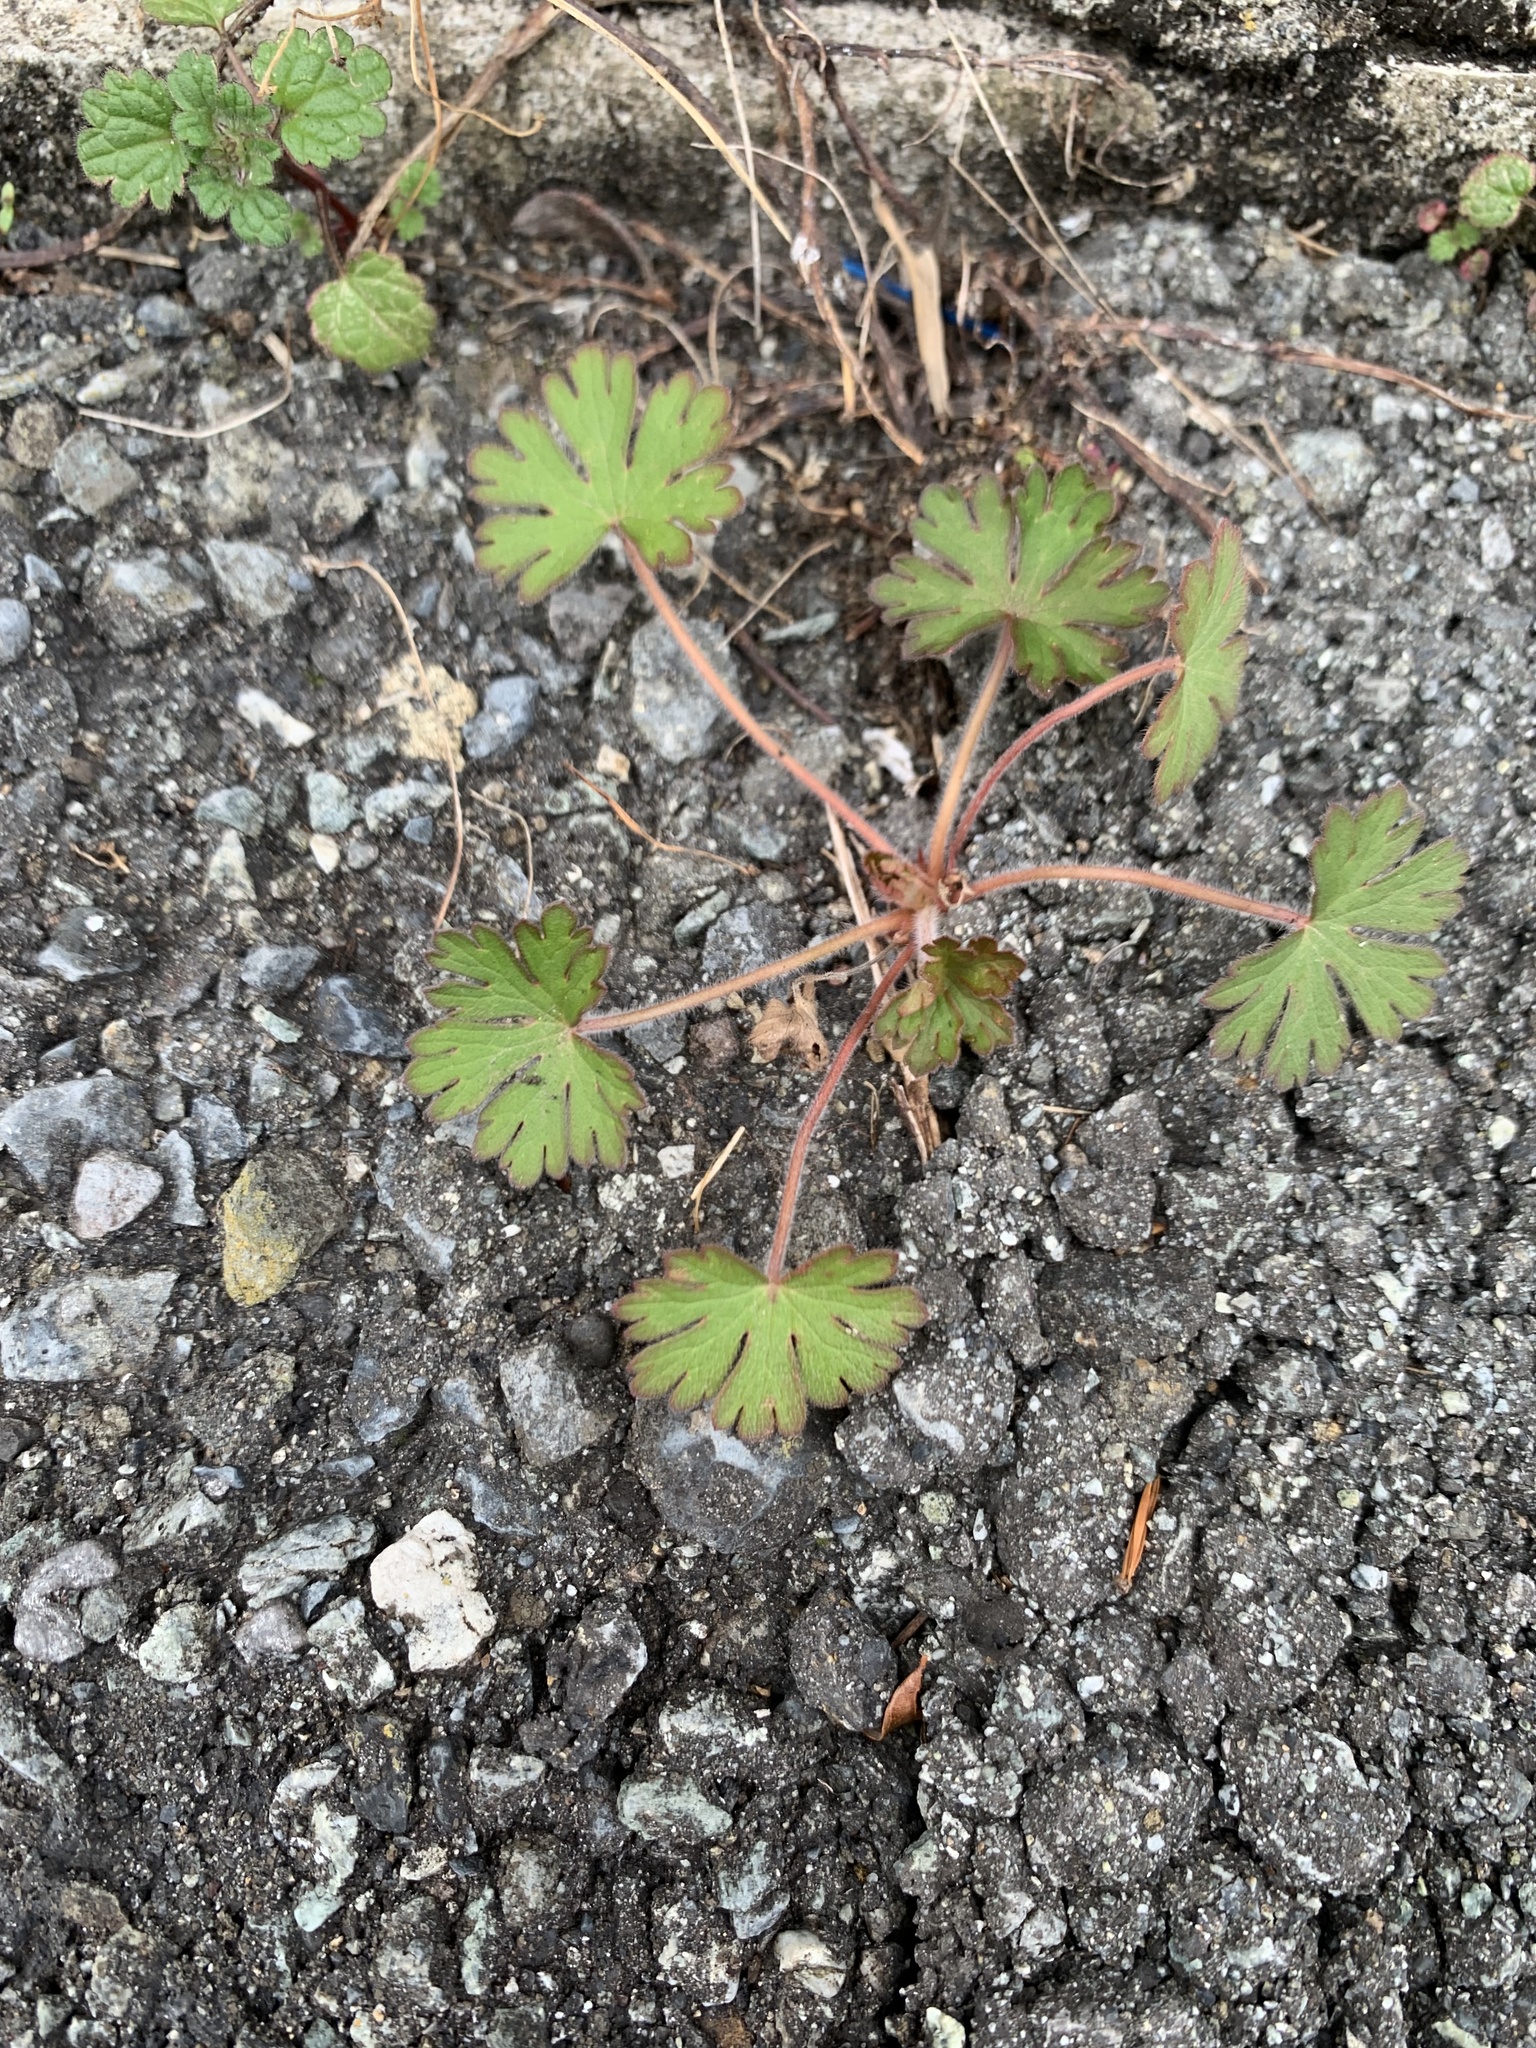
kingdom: Plantae
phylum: Tracheophyta
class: Magnoliopsida
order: Geraniales
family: Geraniaceae
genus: Geranium
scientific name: Geranium carolinianum
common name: Carolina crane's-bill
